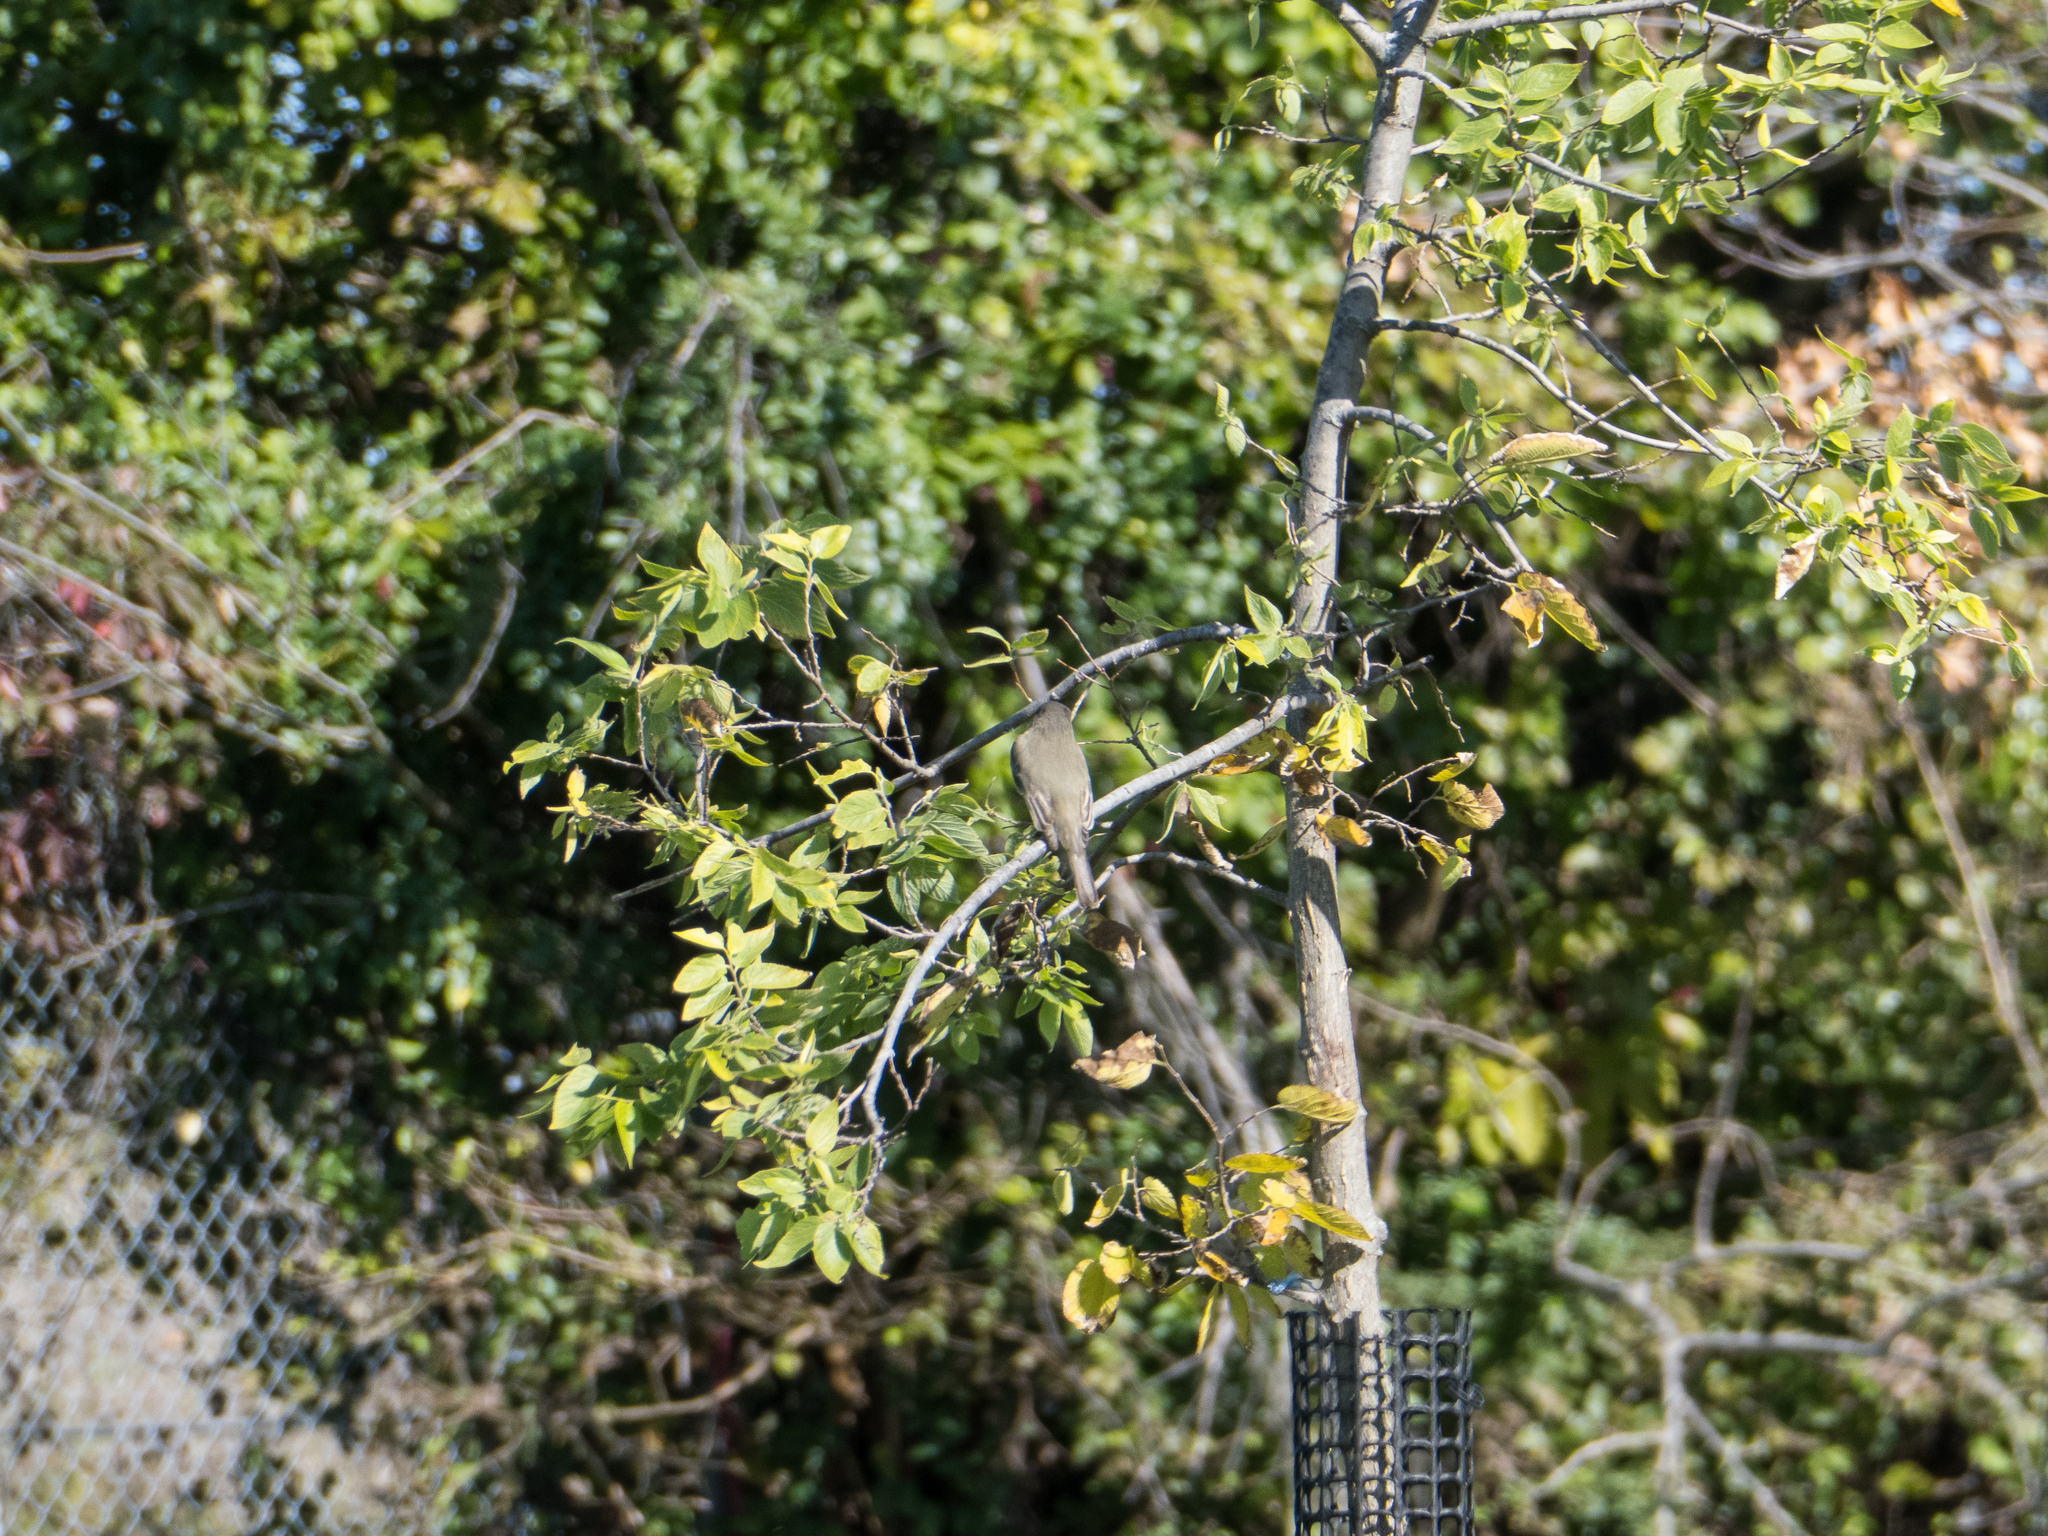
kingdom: Animalia
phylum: Chordata
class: Aves
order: Passeriformes
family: Tyrannidae
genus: Sayornis
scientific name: Sayornis phoebe
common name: Eastern phoebe
